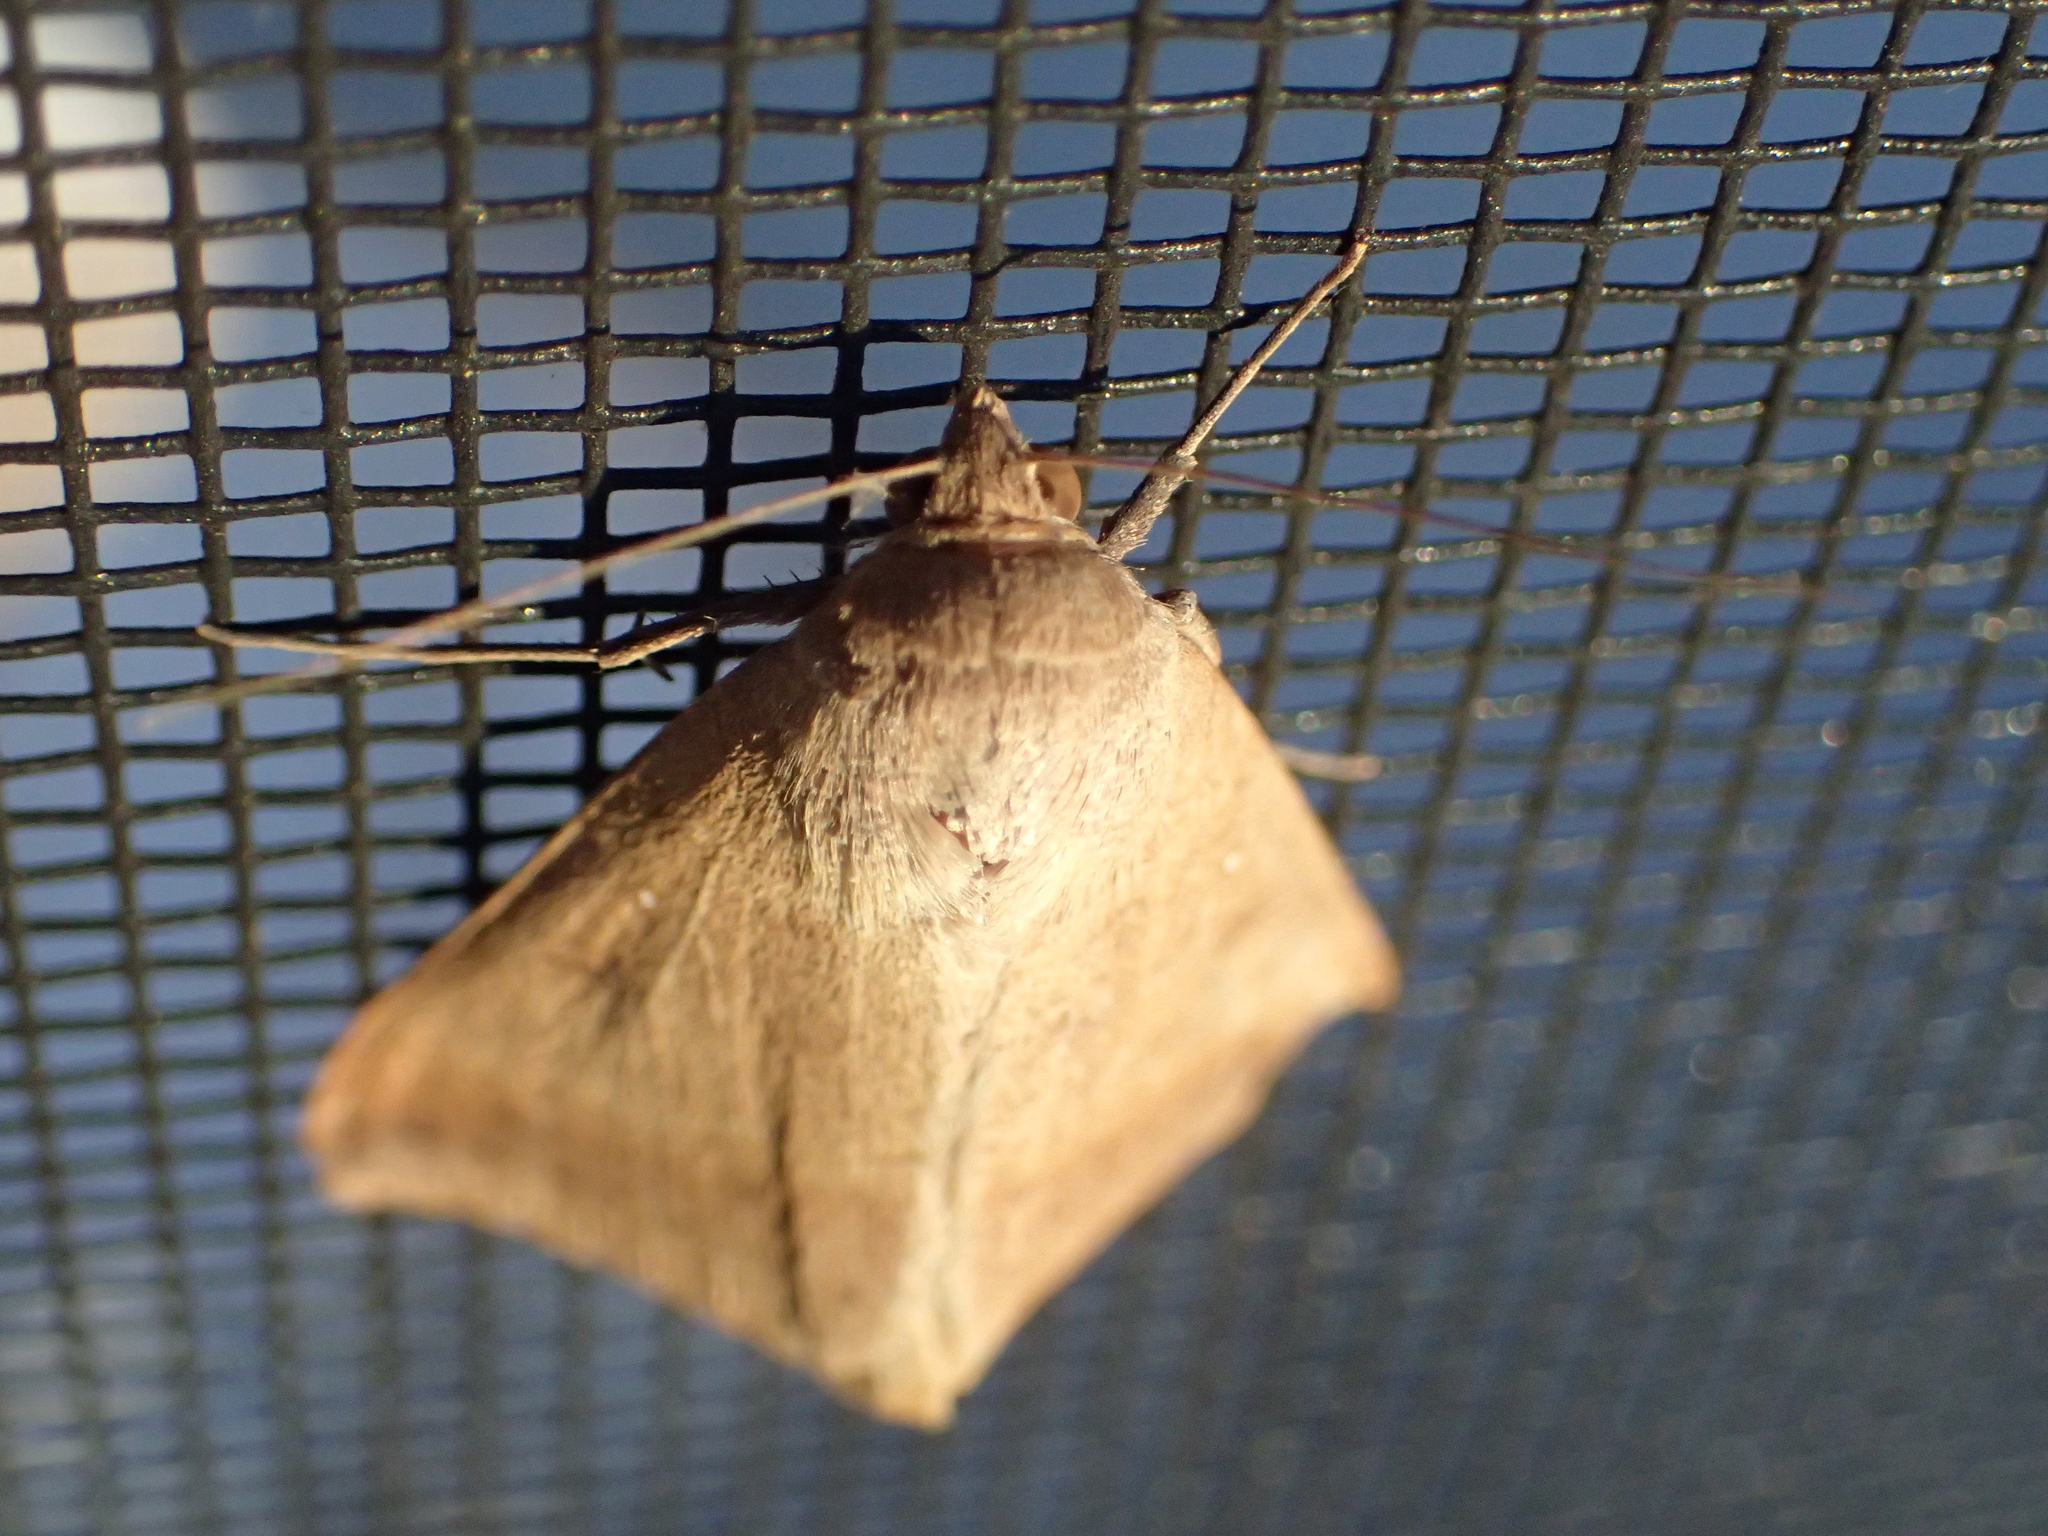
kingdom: Animalia
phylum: Arthropoda
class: Insecta
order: Lepidoptera
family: Erebidae
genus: Mocis
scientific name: Mocis disseverans
